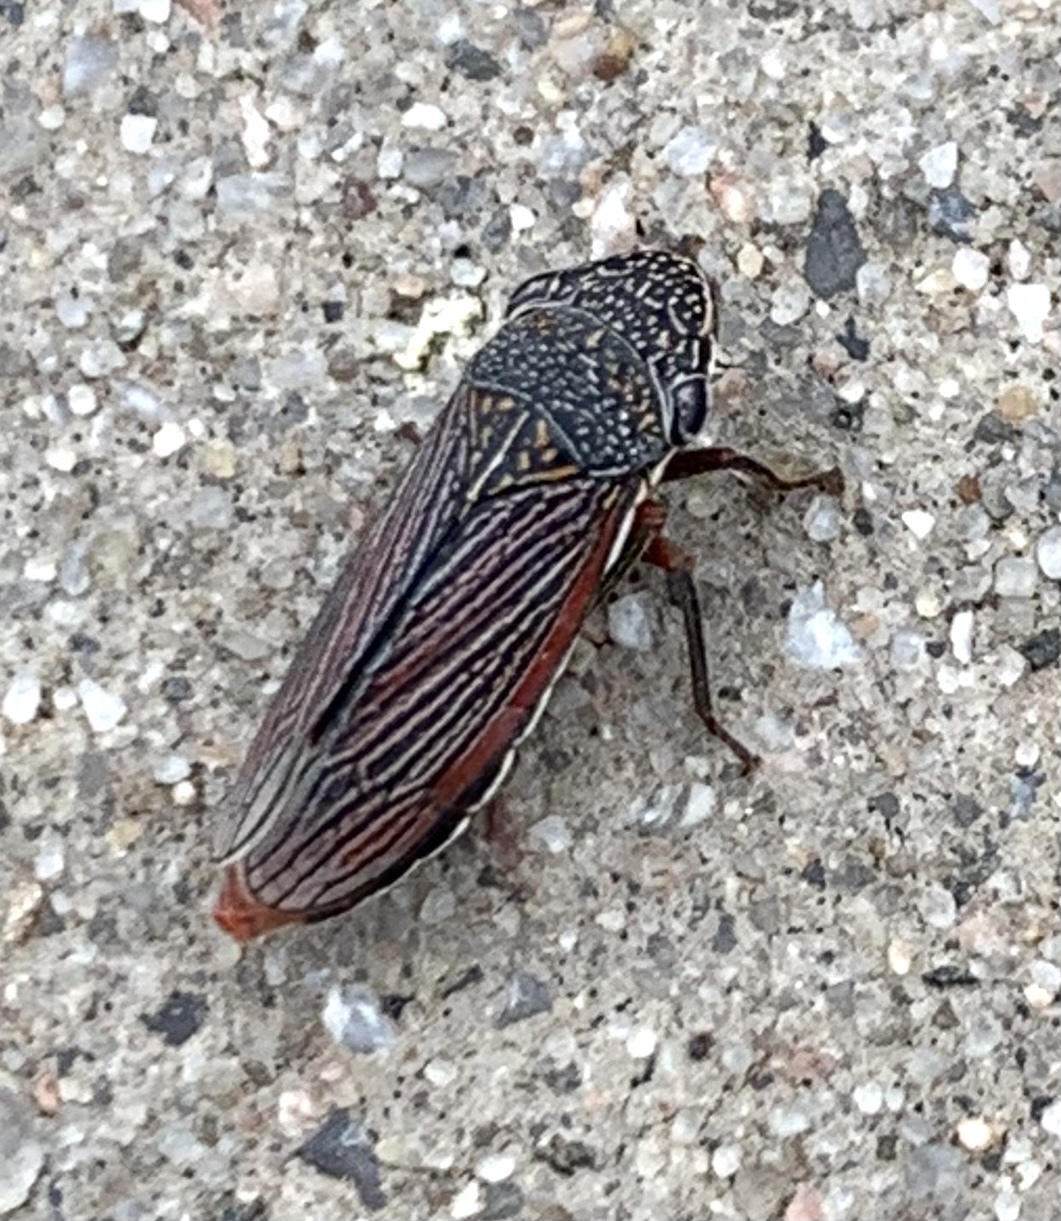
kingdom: Animalia
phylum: Arthropoda
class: Insecta
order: Hemiptera
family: Cicadellidae
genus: Cuerna
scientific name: Cuerna costalis
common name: Lateral-lined sharpshooter
